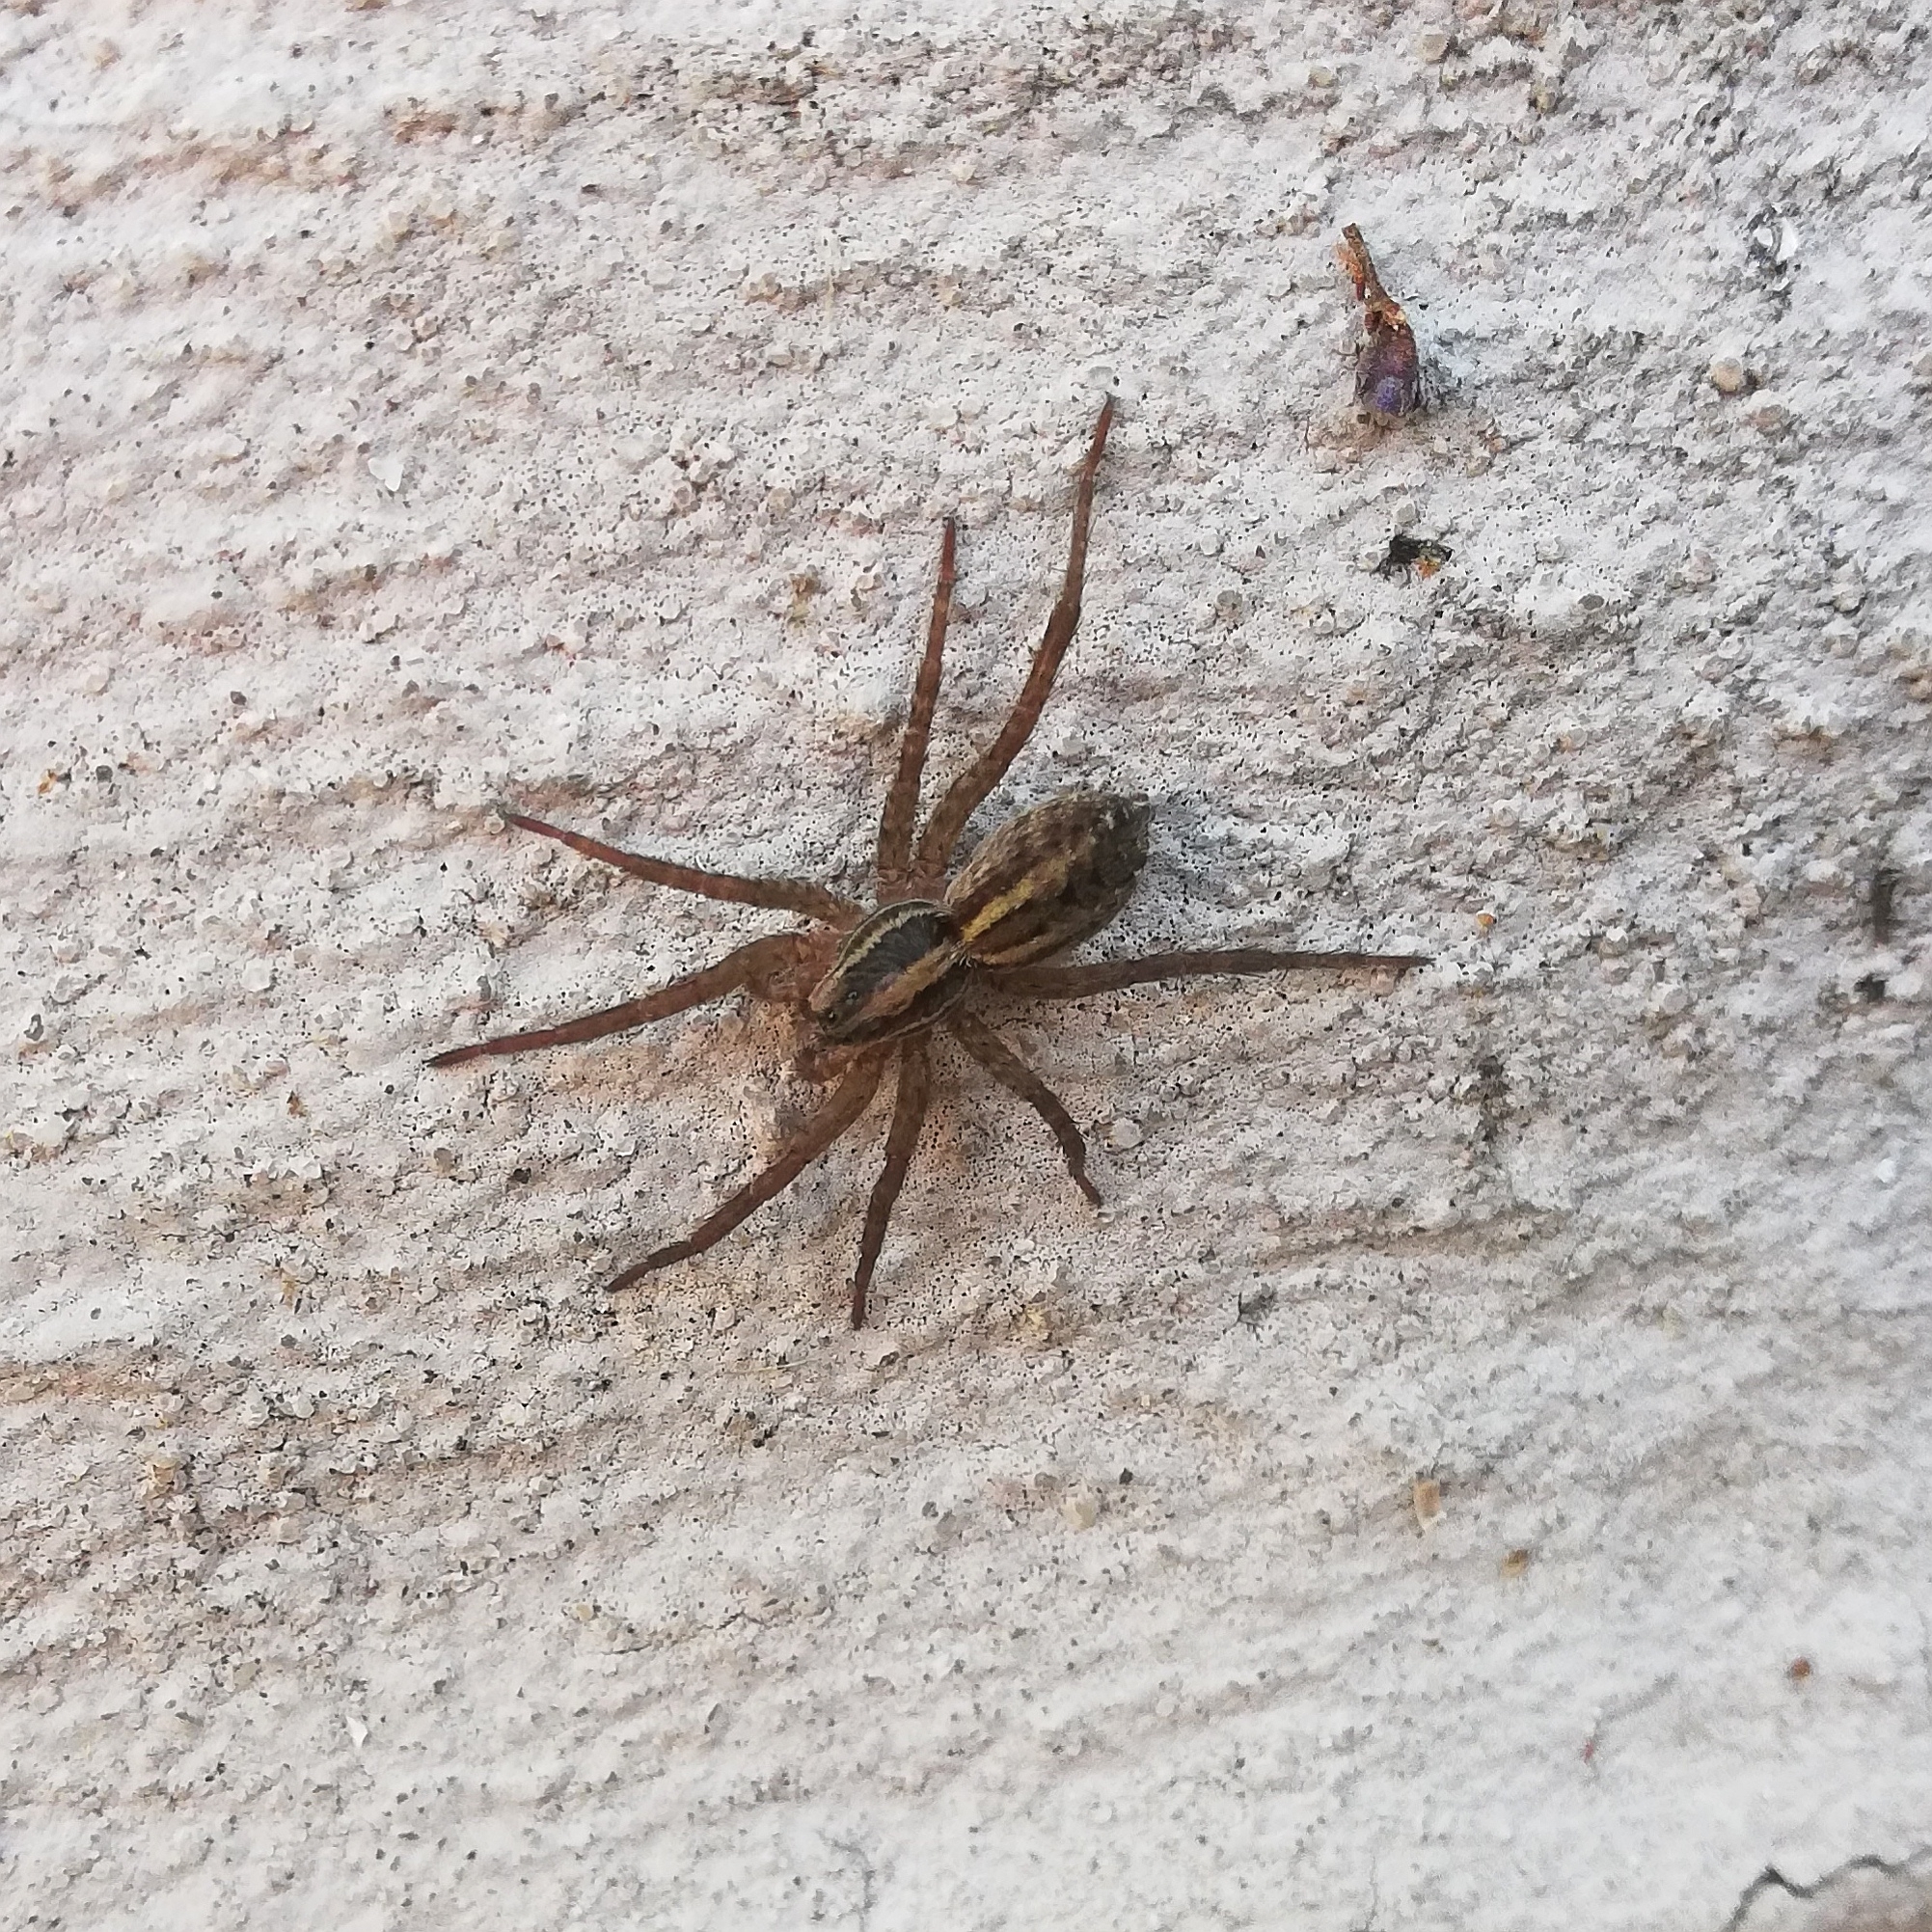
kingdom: Animalia
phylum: Arthropoda
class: Arachnida
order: Araneae
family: Lycosidae
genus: Alopecosa
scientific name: Alopecosa moesta
